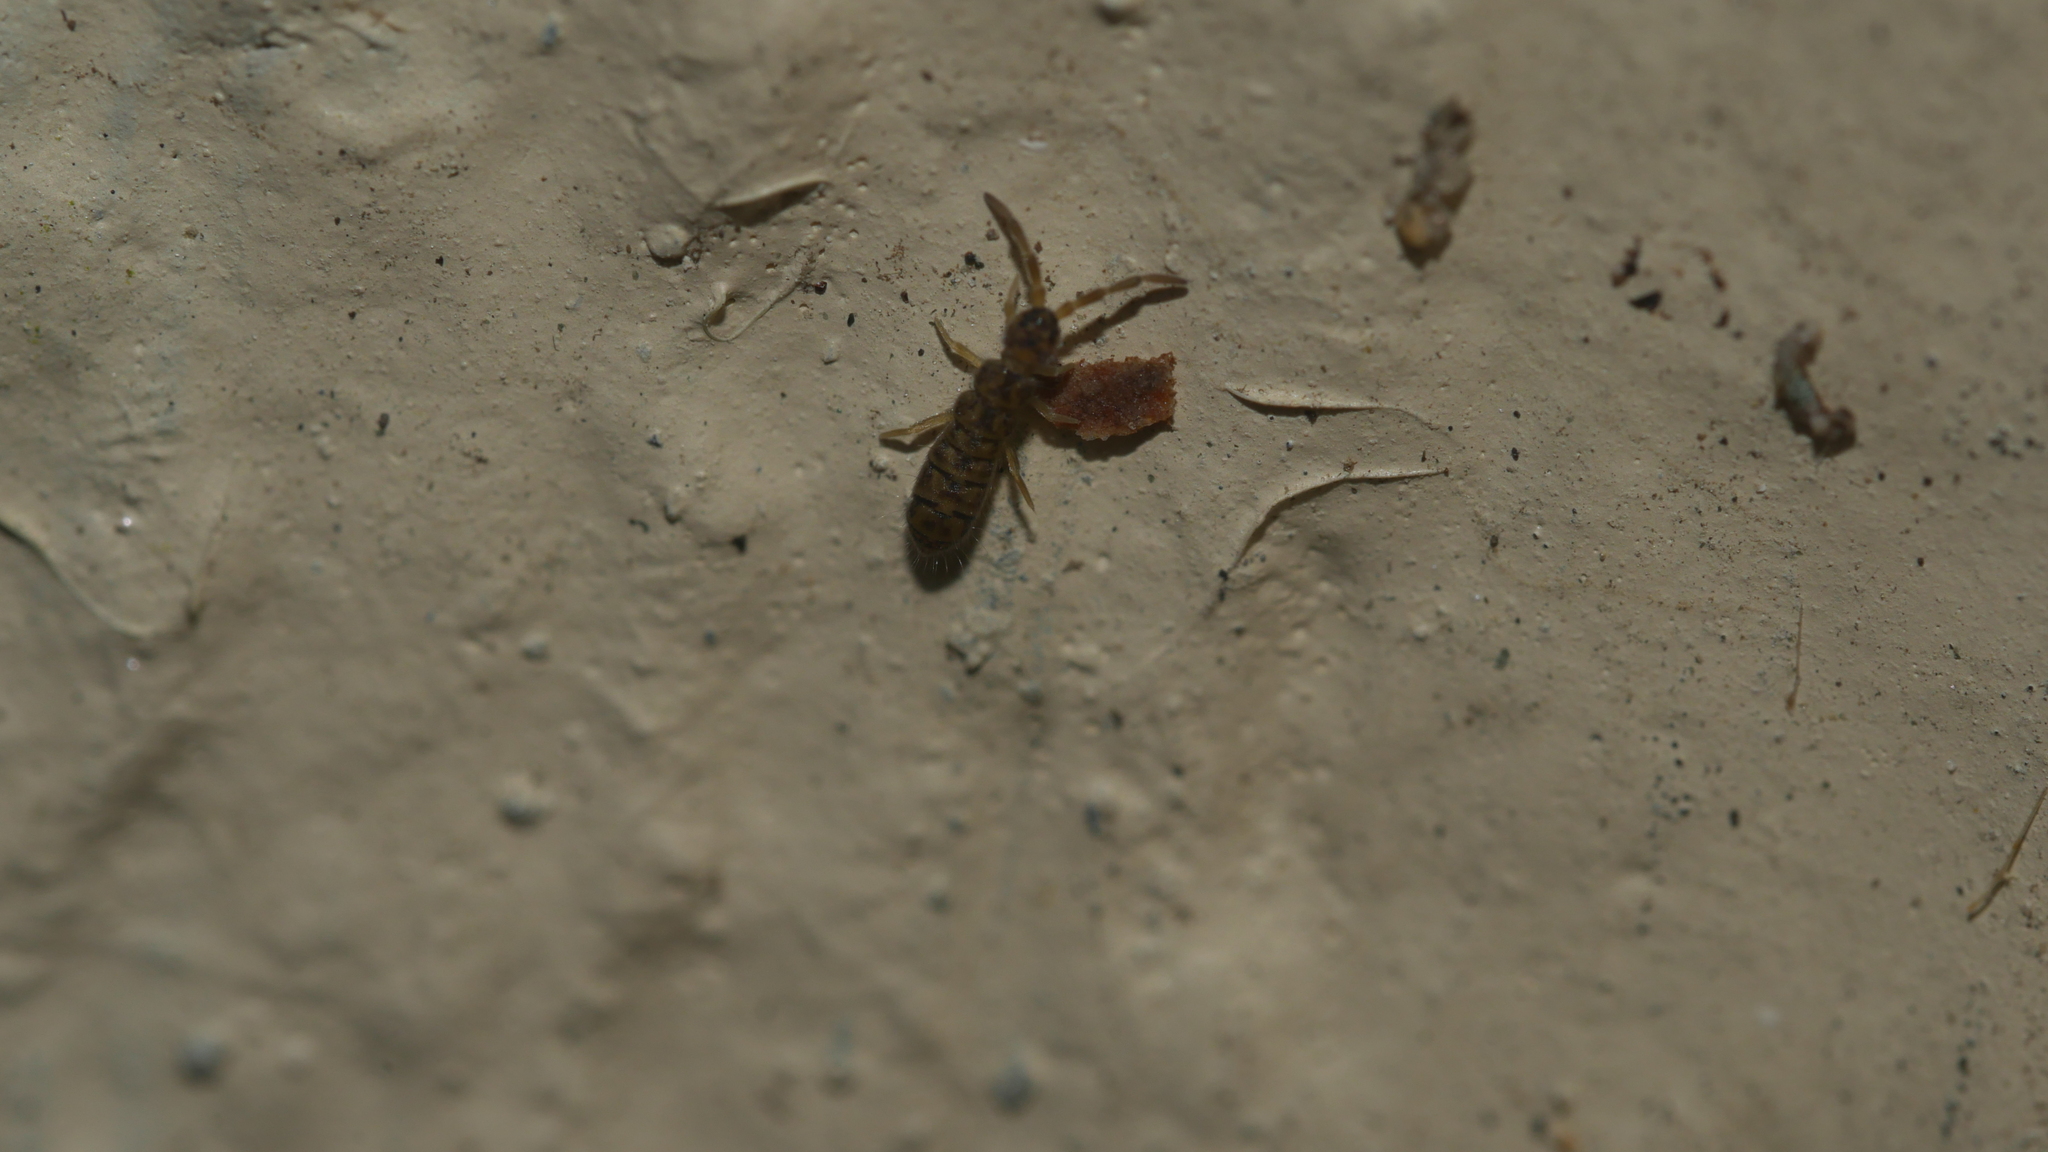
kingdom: Animalia
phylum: Arthropoda
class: Collembola
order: Entomobryomorpha
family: Isotomidae
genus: Isotoma
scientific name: Isotoma delta
